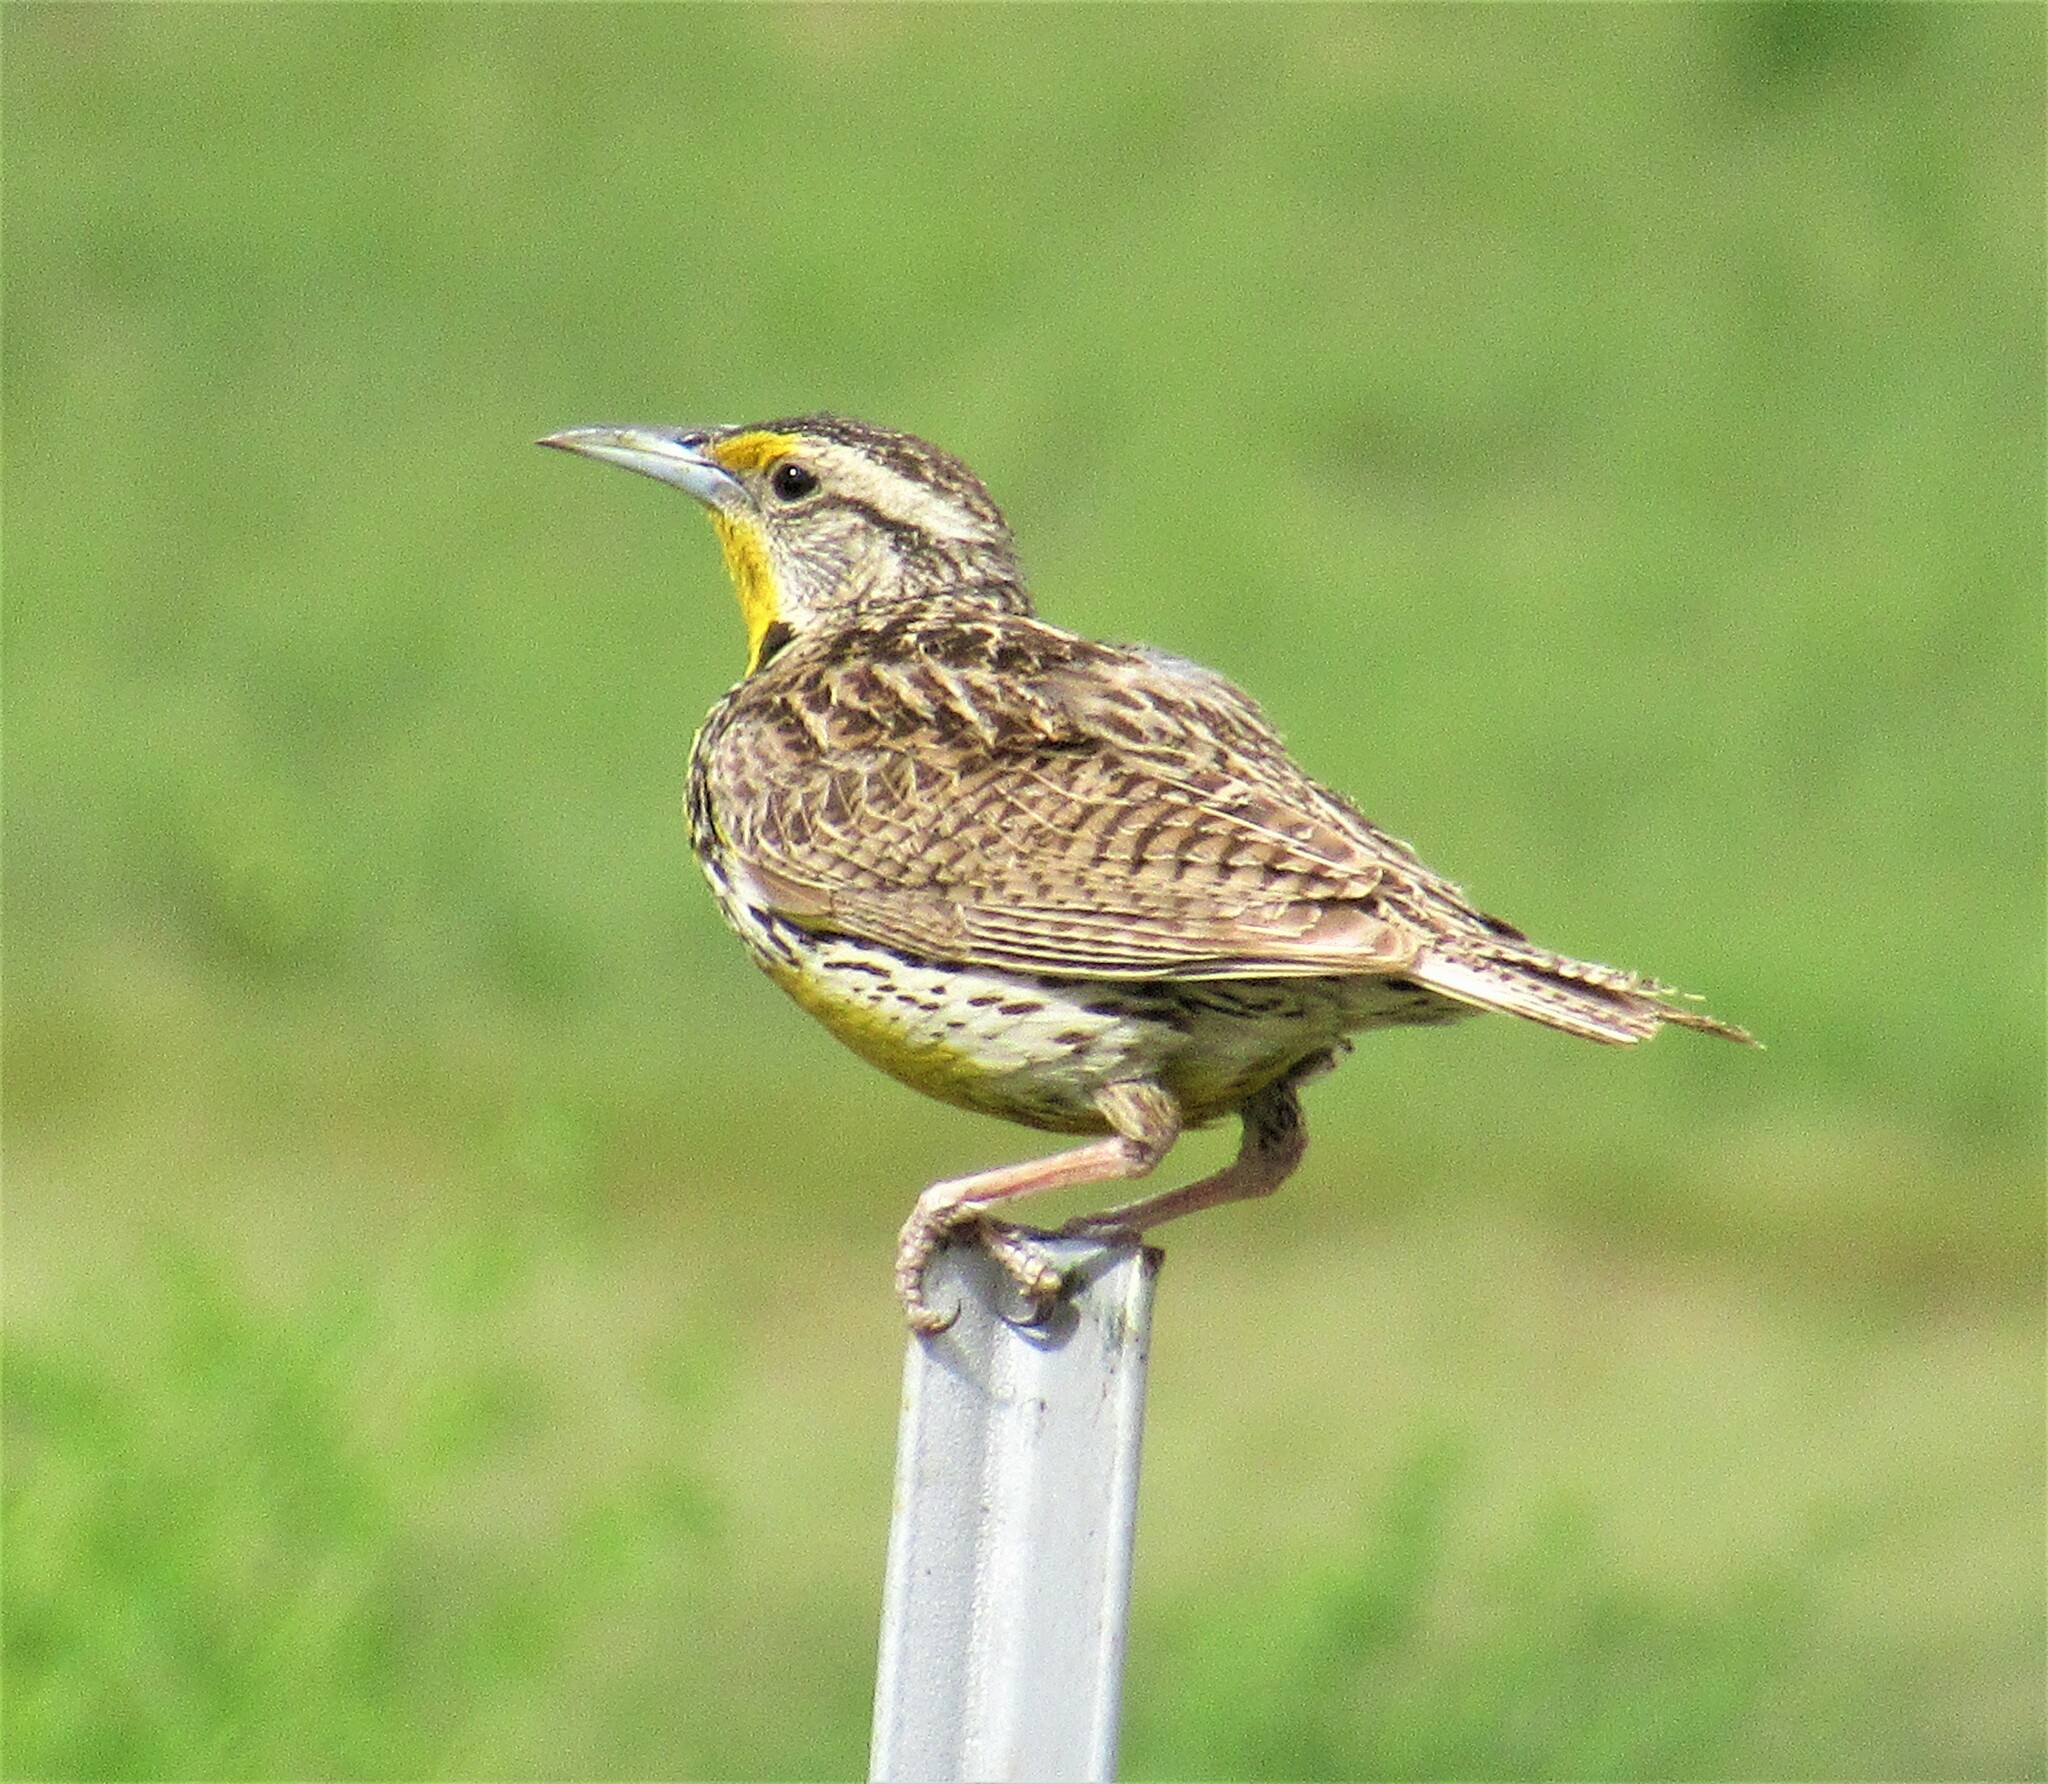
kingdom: Animalia
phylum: Chordata
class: Aves
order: Passeriformes
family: Icteridae
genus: Sturnella
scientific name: Sturnella neglecta
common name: Western meadowlark
